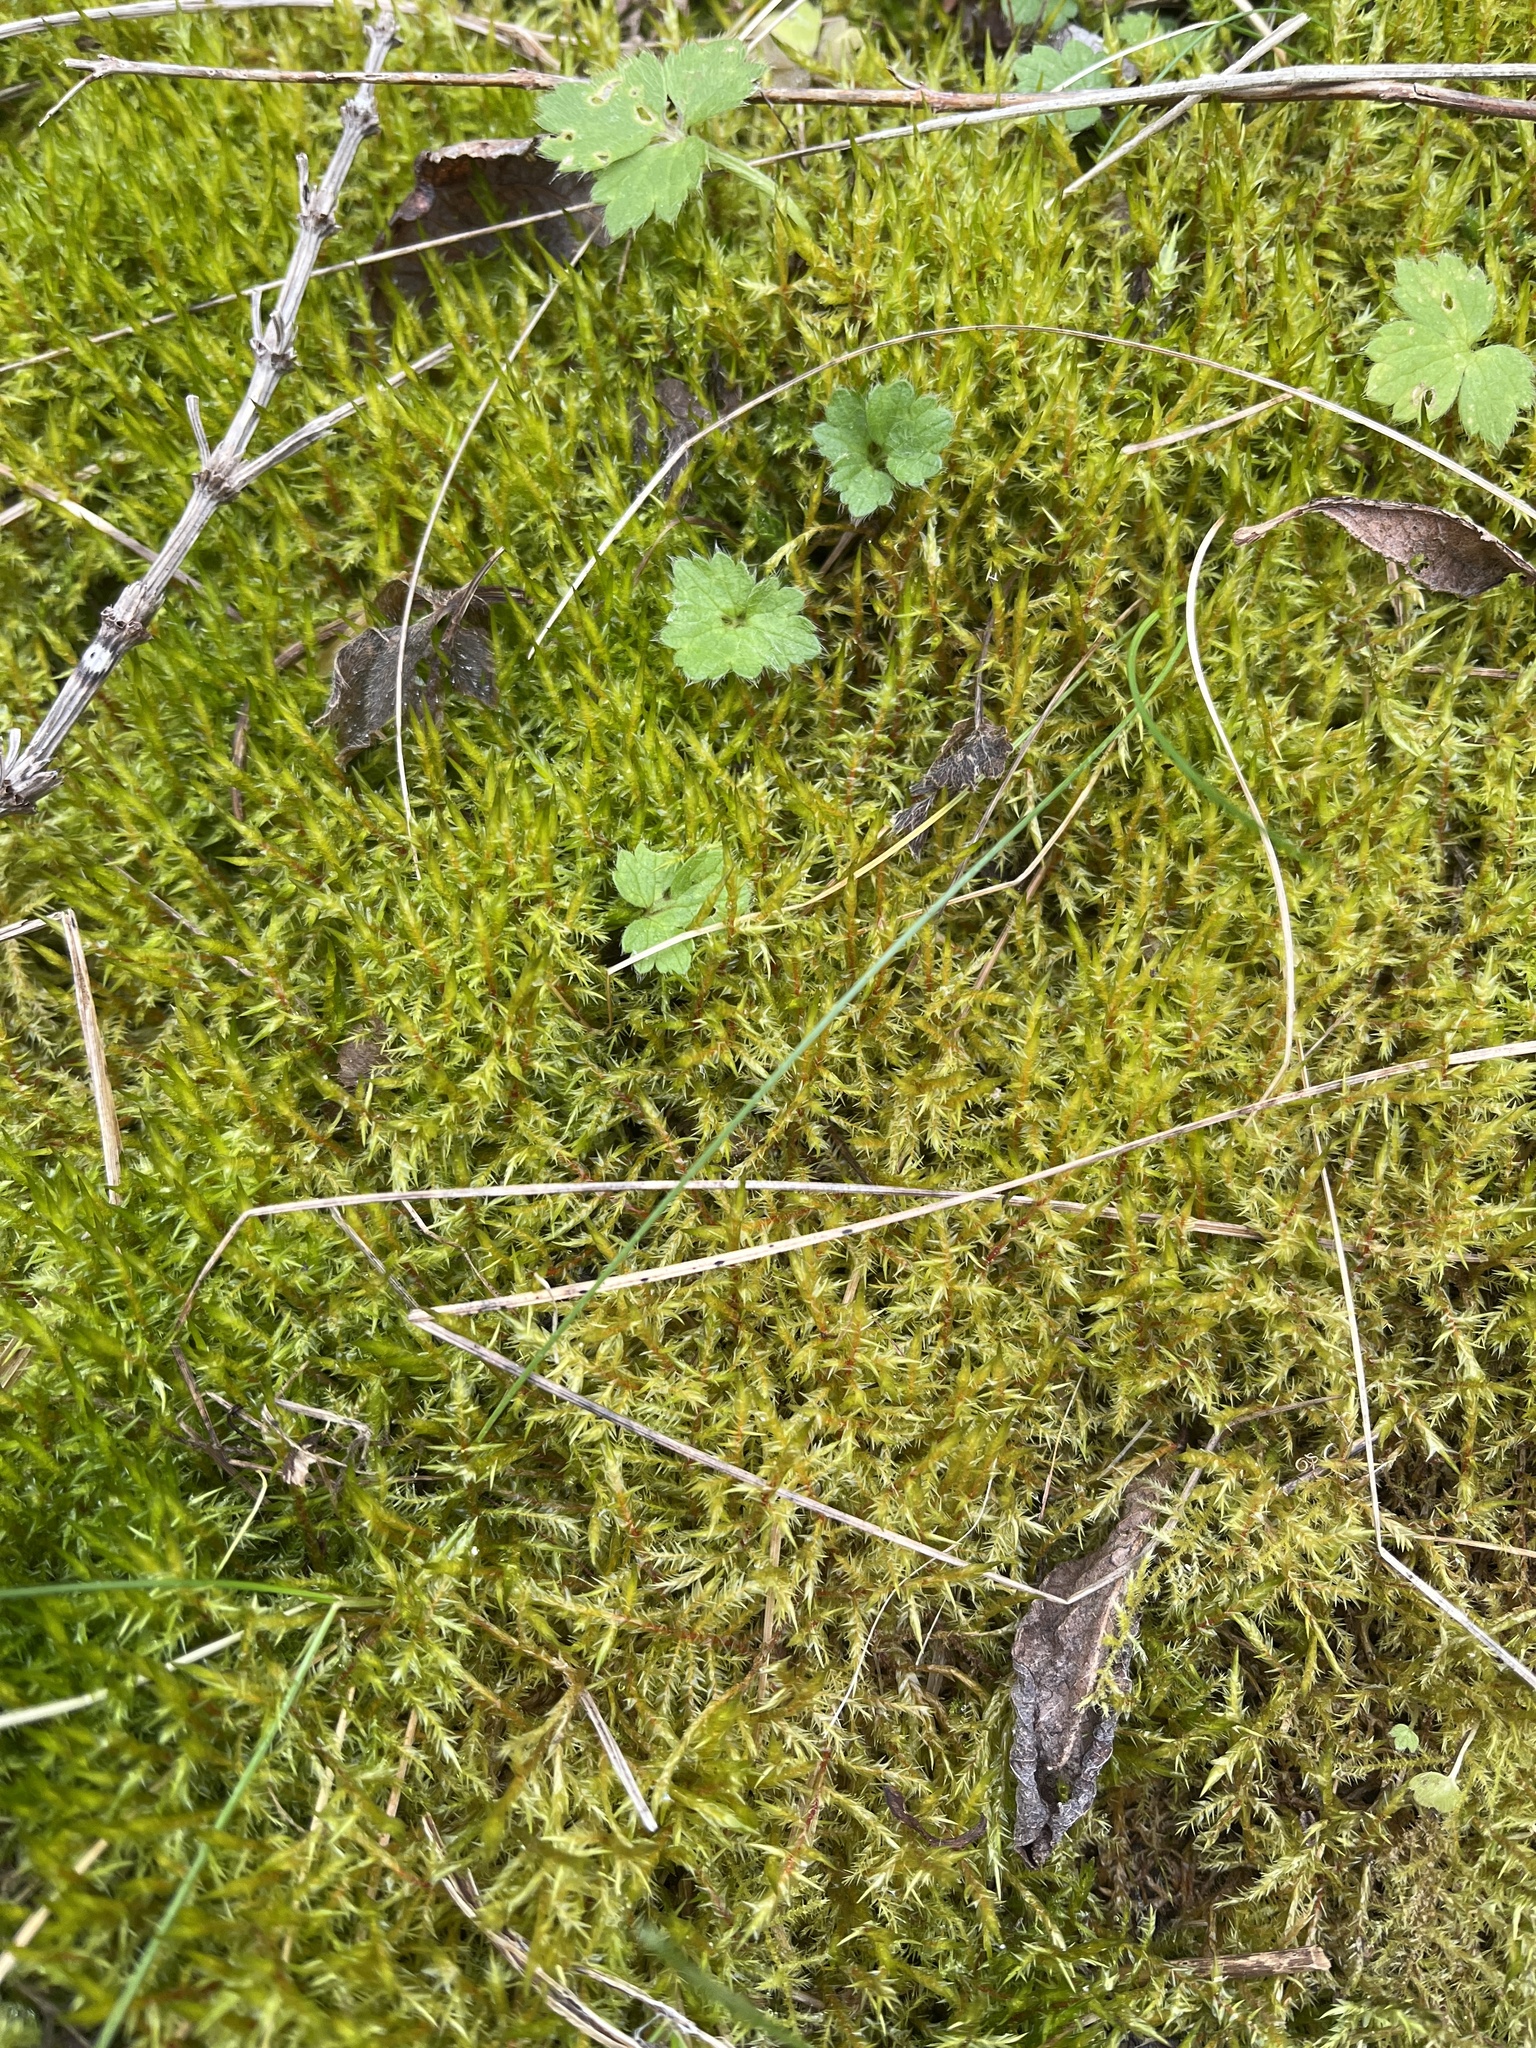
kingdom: Plantae
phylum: Bryophyta
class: Bryopsida
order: Hypnales
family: Pylaisiaceae
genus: Calliergonella
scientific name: Calliergonella cuspidata
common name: Common large wetland moss
